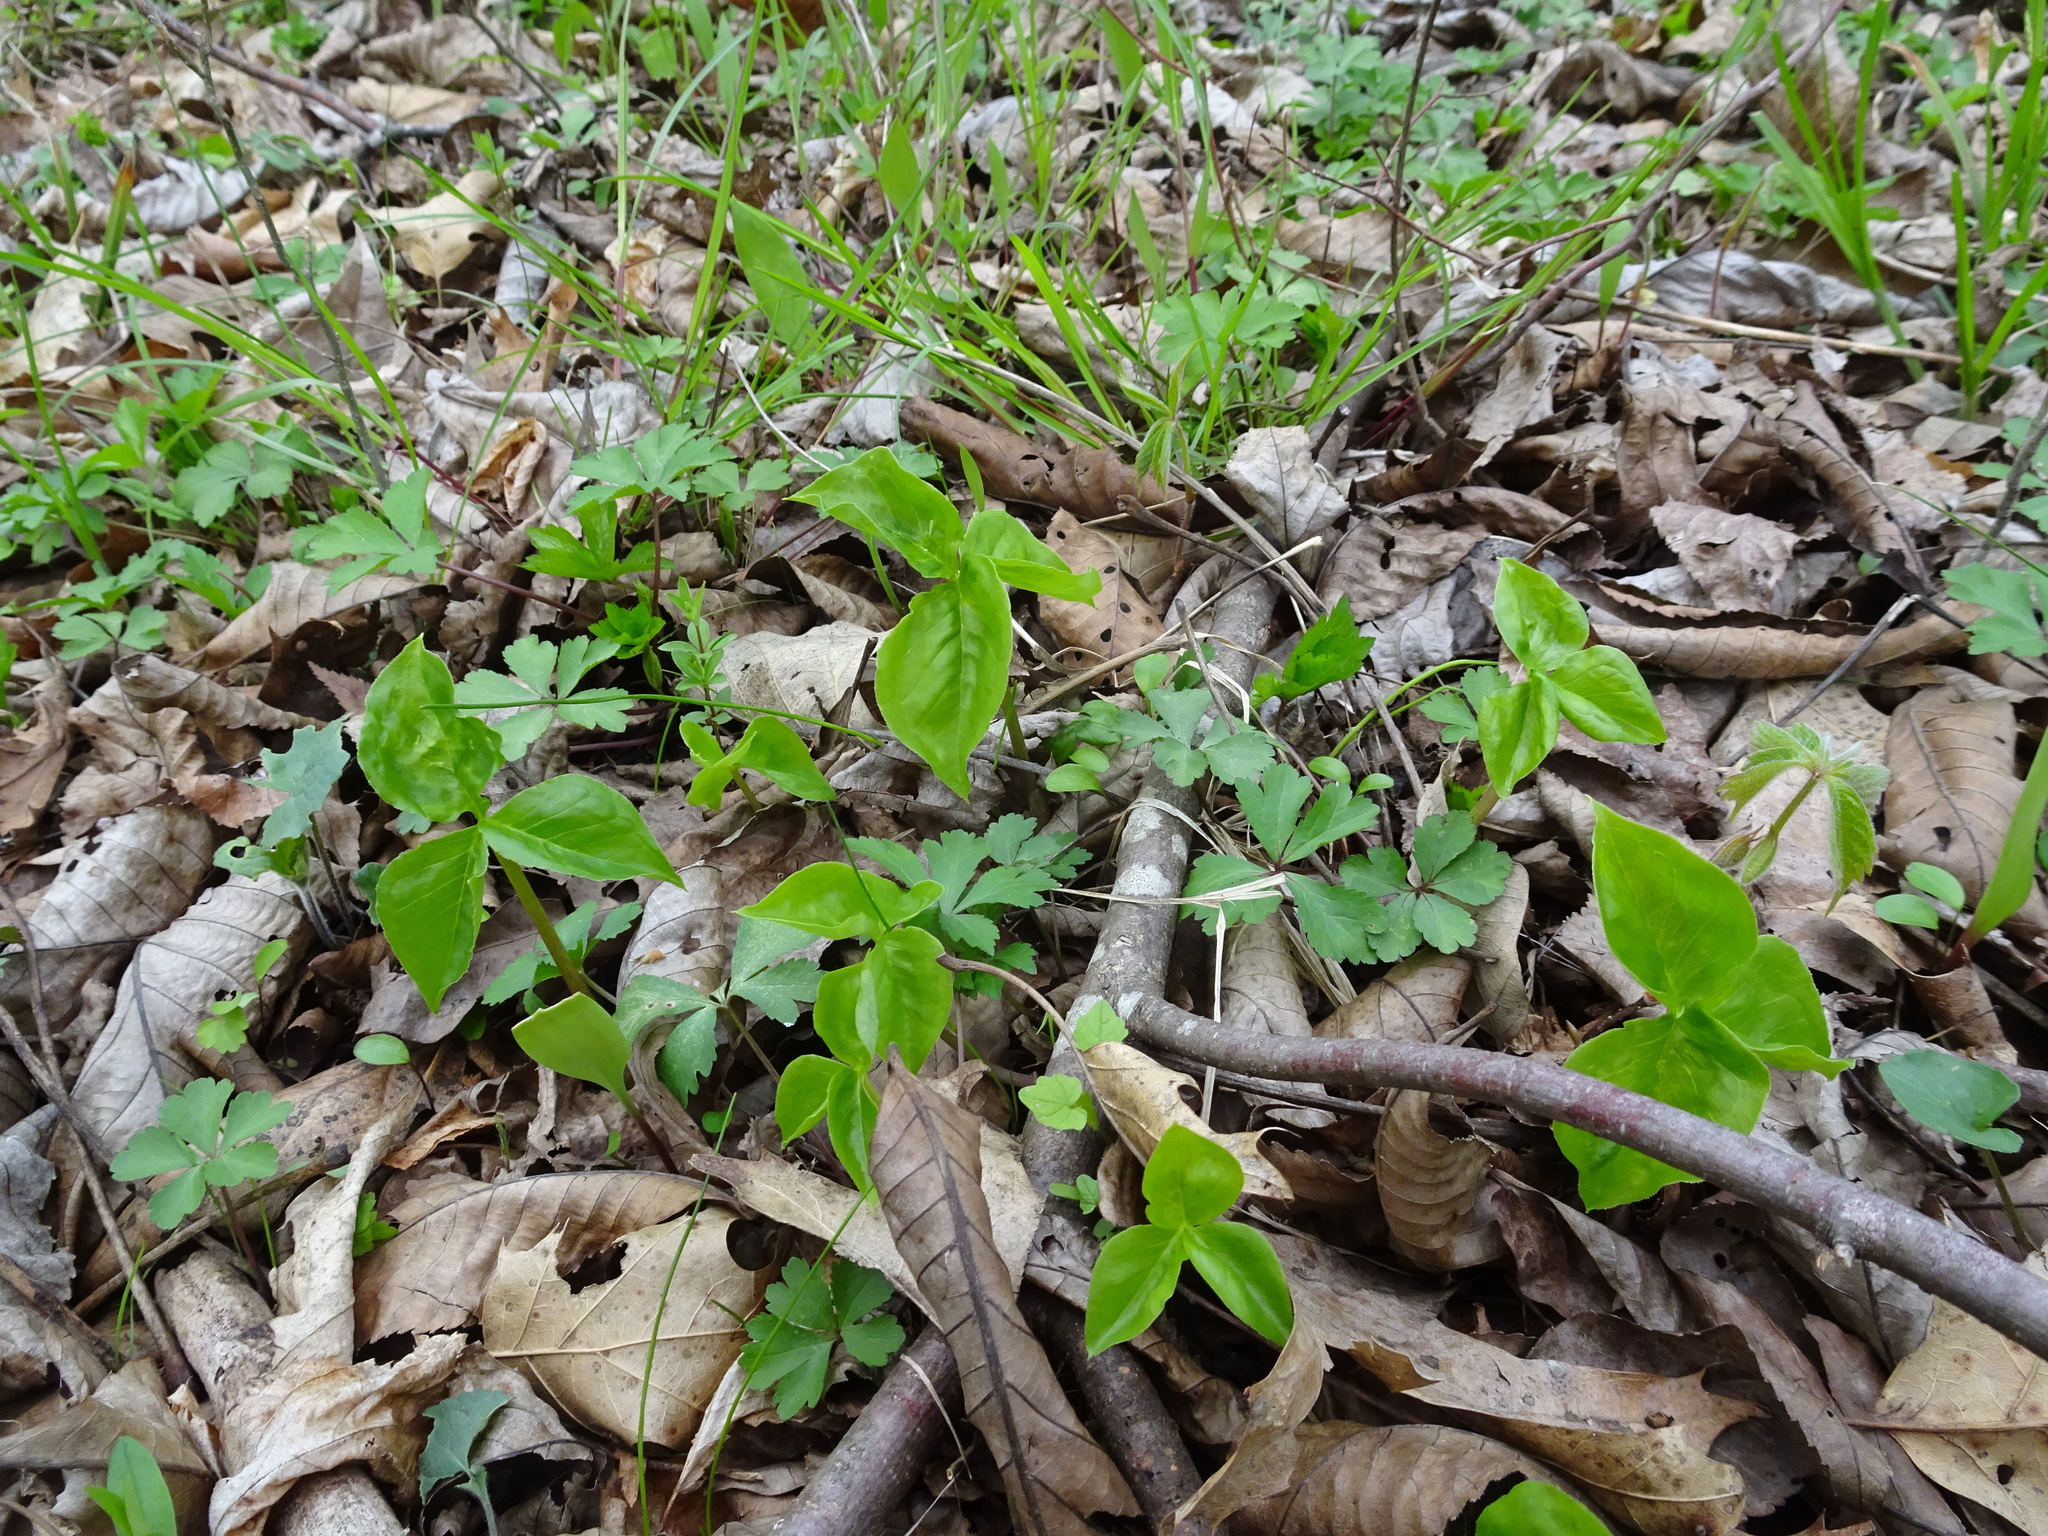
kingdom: Plantae
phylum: Tracheophyta
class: Liliopsida
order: Alismatales
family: Araceae
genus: Arisaema
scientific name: Arisaema triphyllum
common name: Jack-in-the-pulpit
